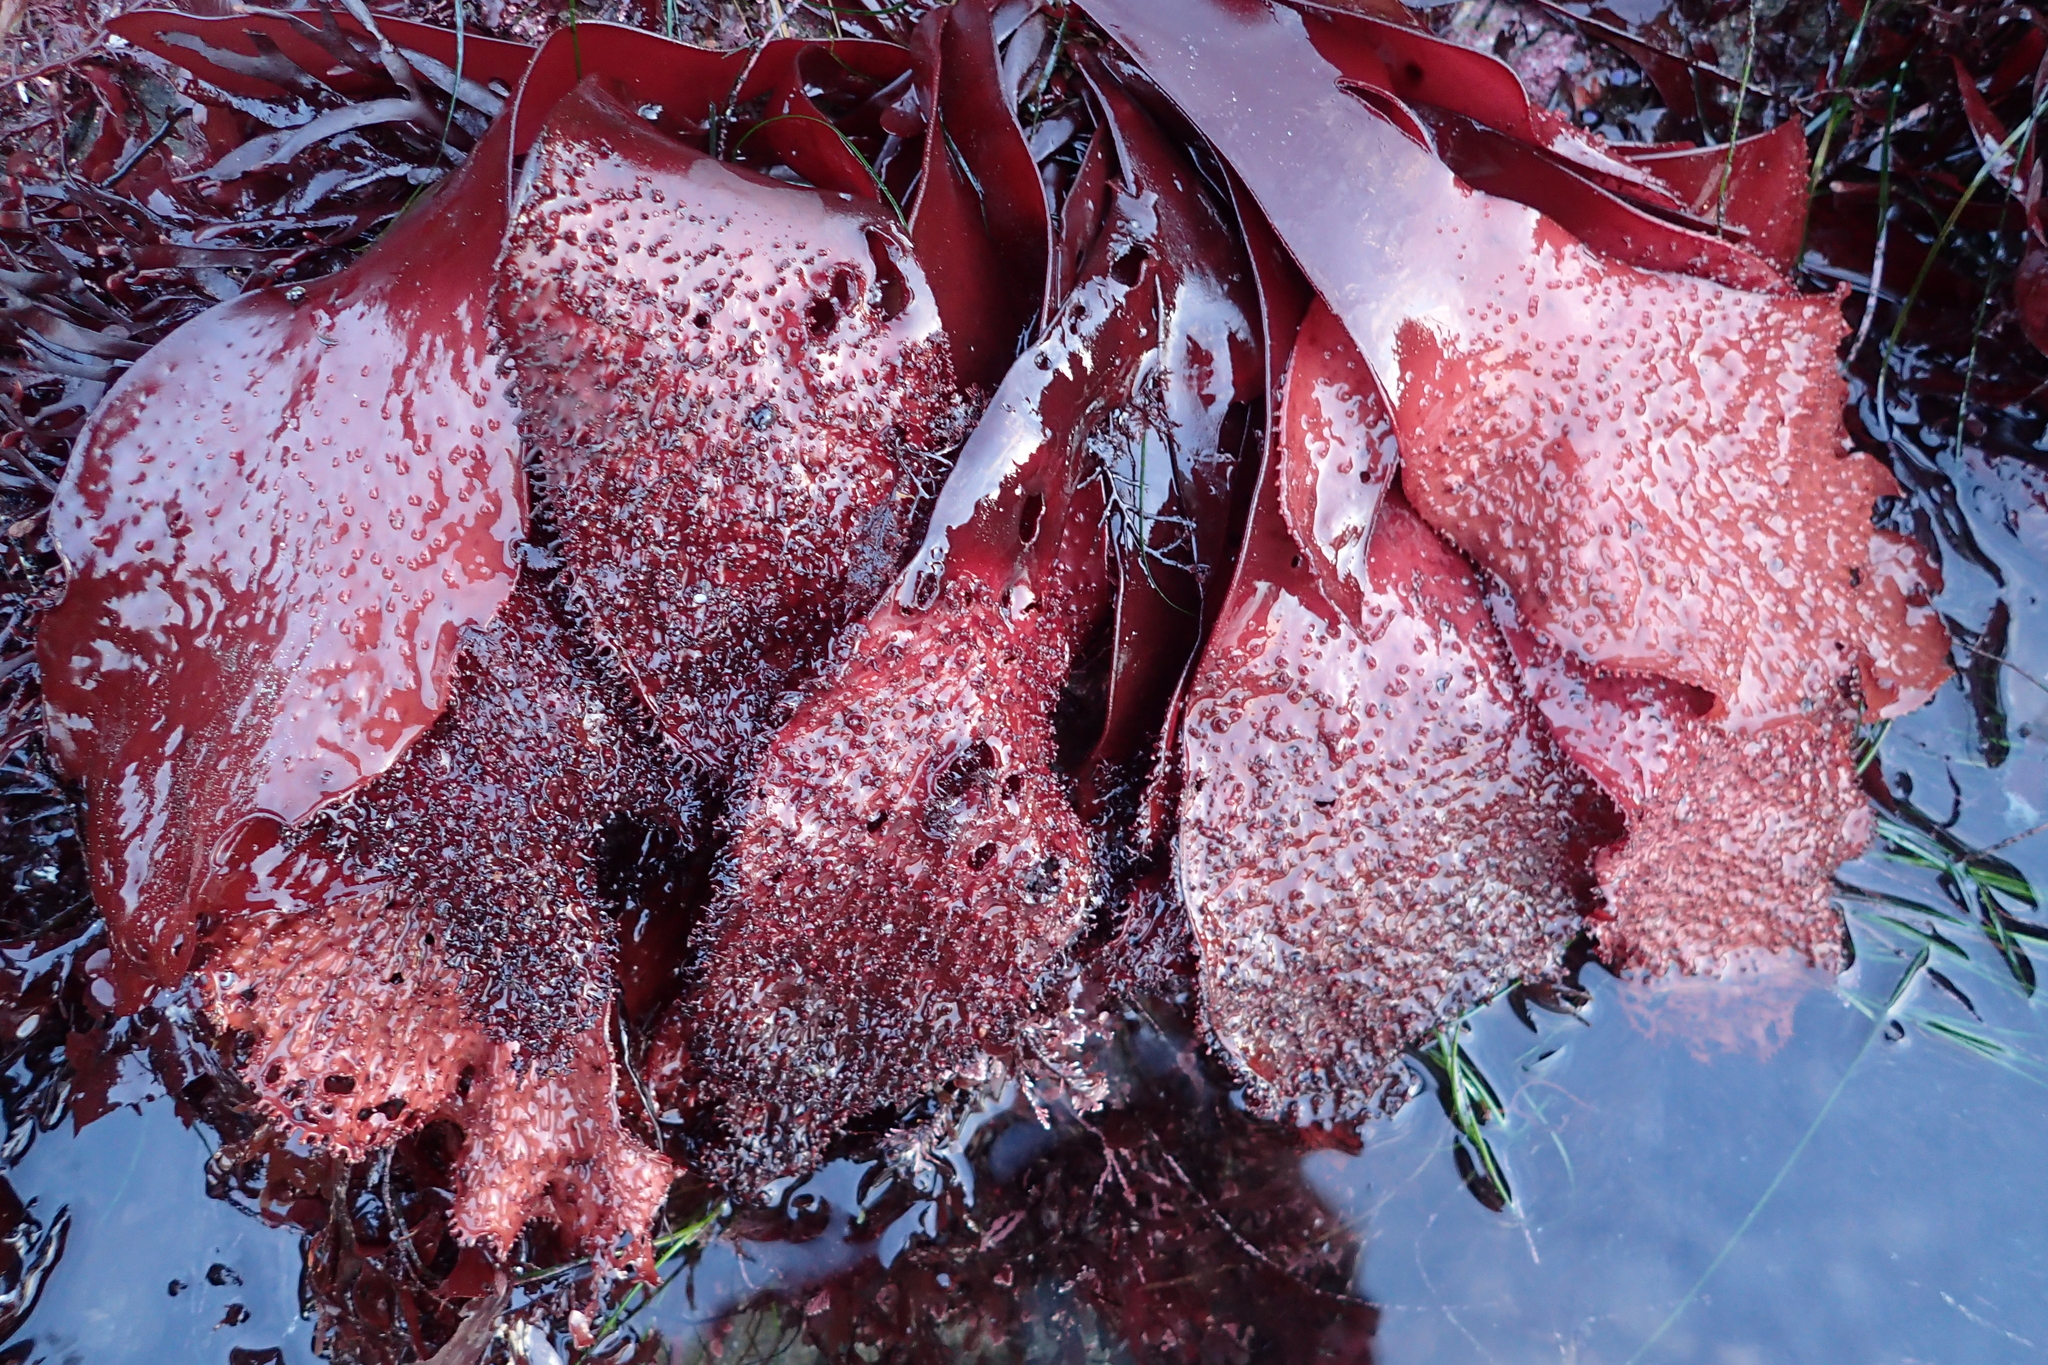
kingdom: Plantae
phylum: Rhodophyta
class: Florideophyceae
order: Gigartinales
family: Gigartinaceae
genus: Chondracanthus
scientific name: Chondracanthus exasperatus
